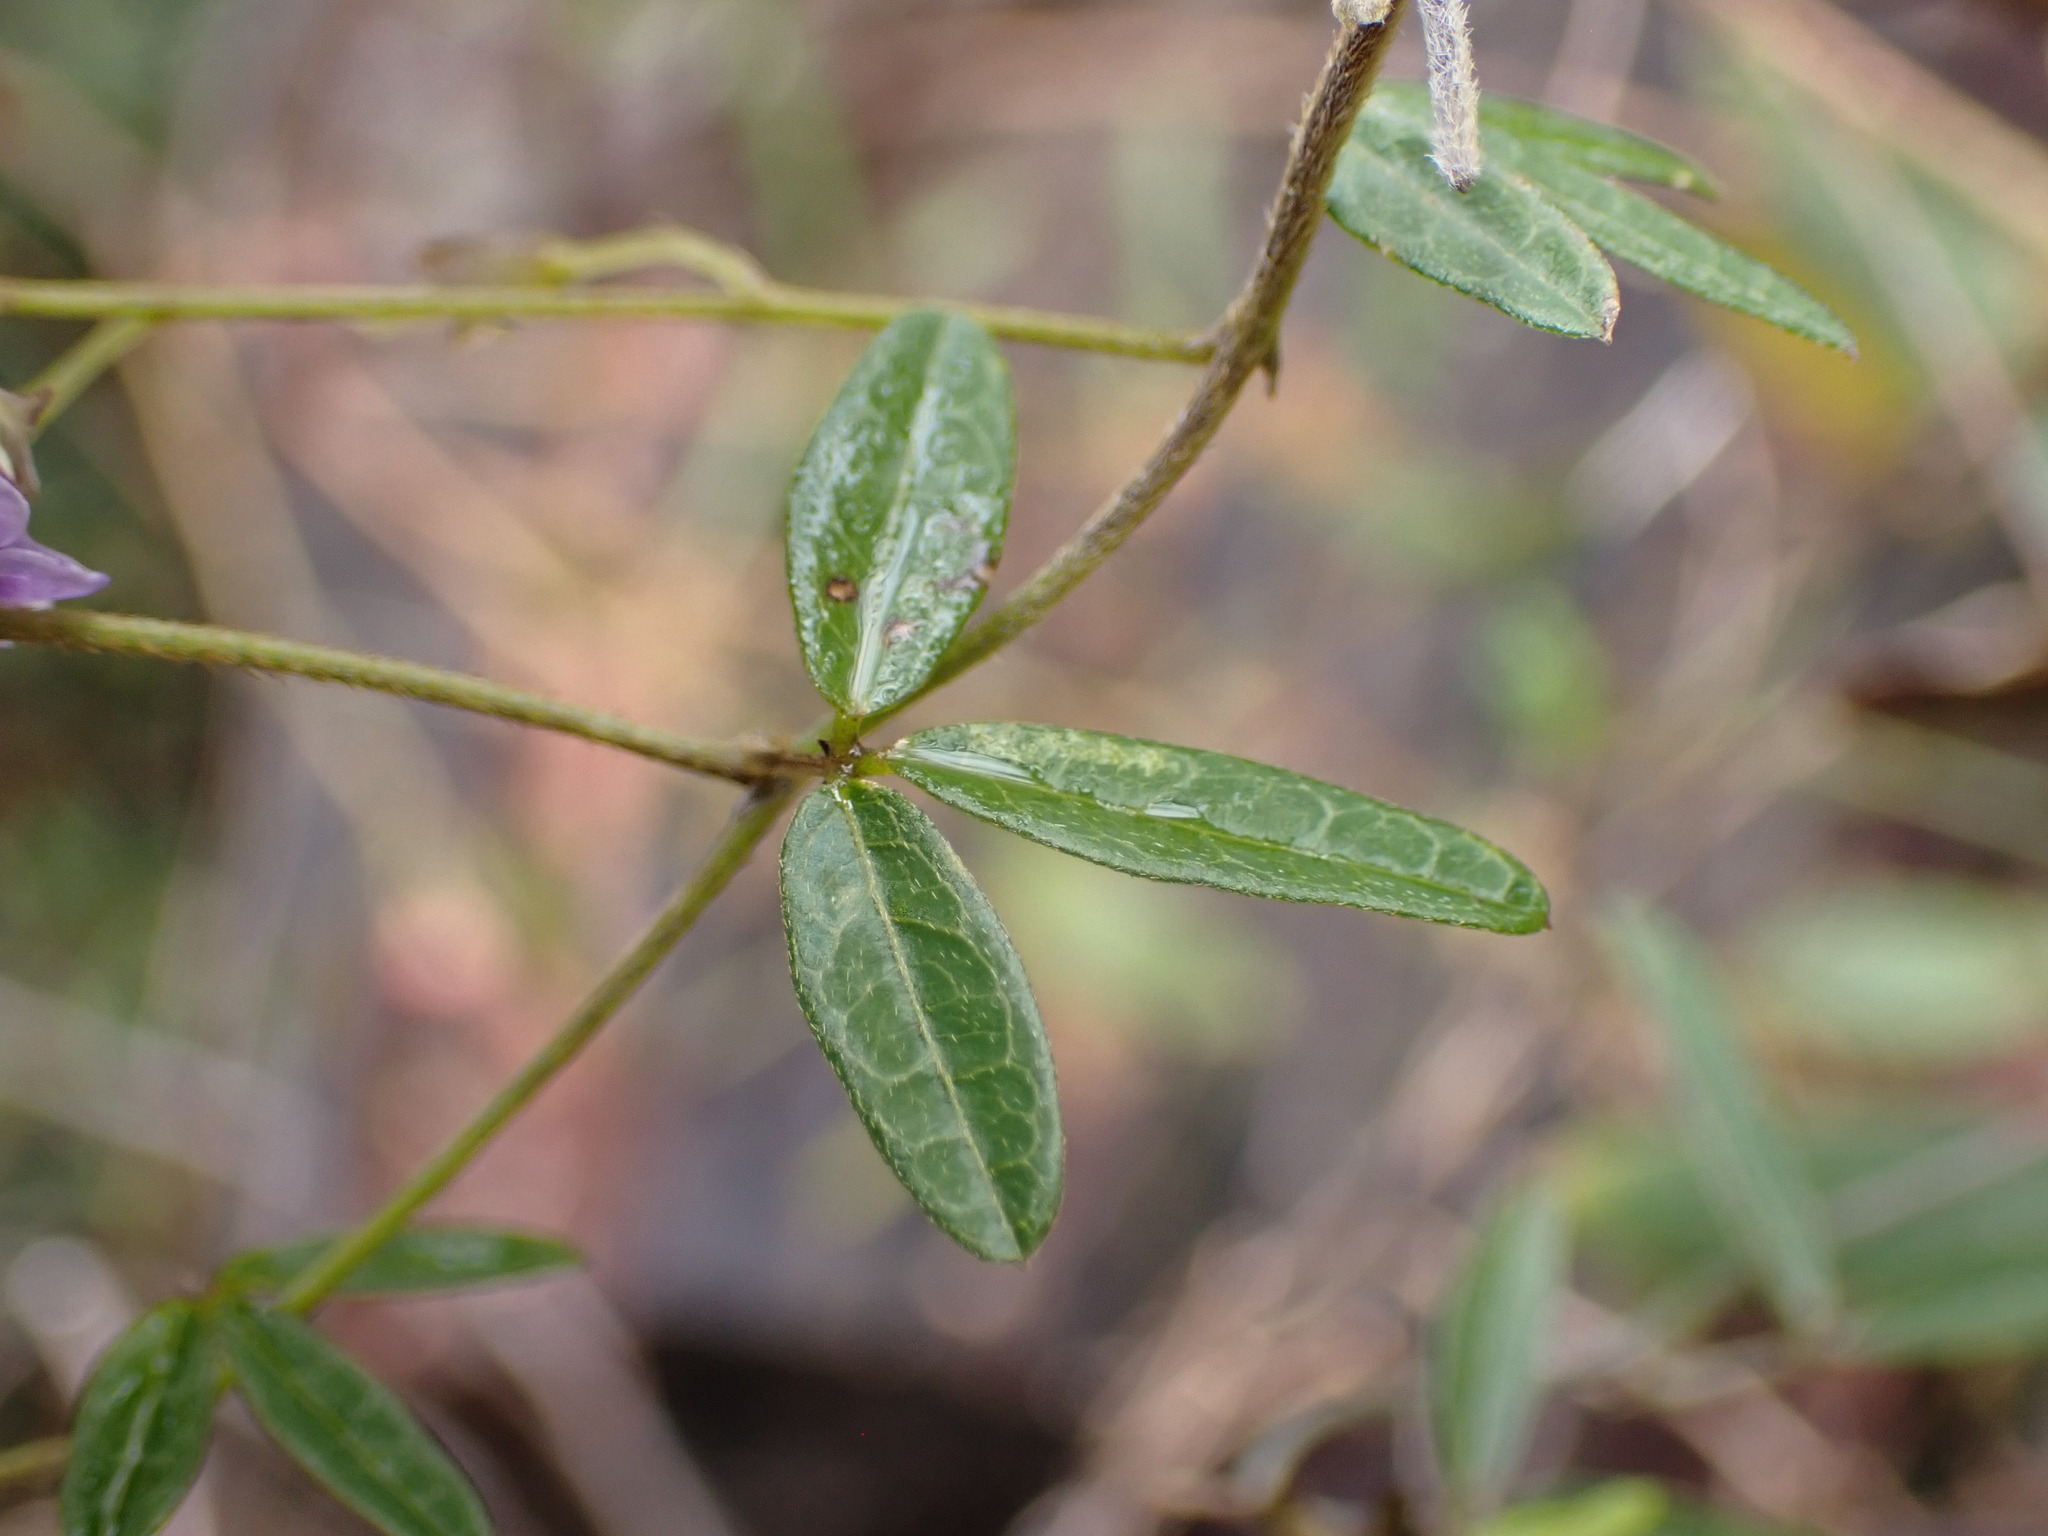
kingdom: Plantae
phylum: Tracheophyta
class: Magnoliopsida
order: Fabales
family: Fabaceae
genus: Glycine
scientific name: Glycine clandestina
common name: Twining glycine
